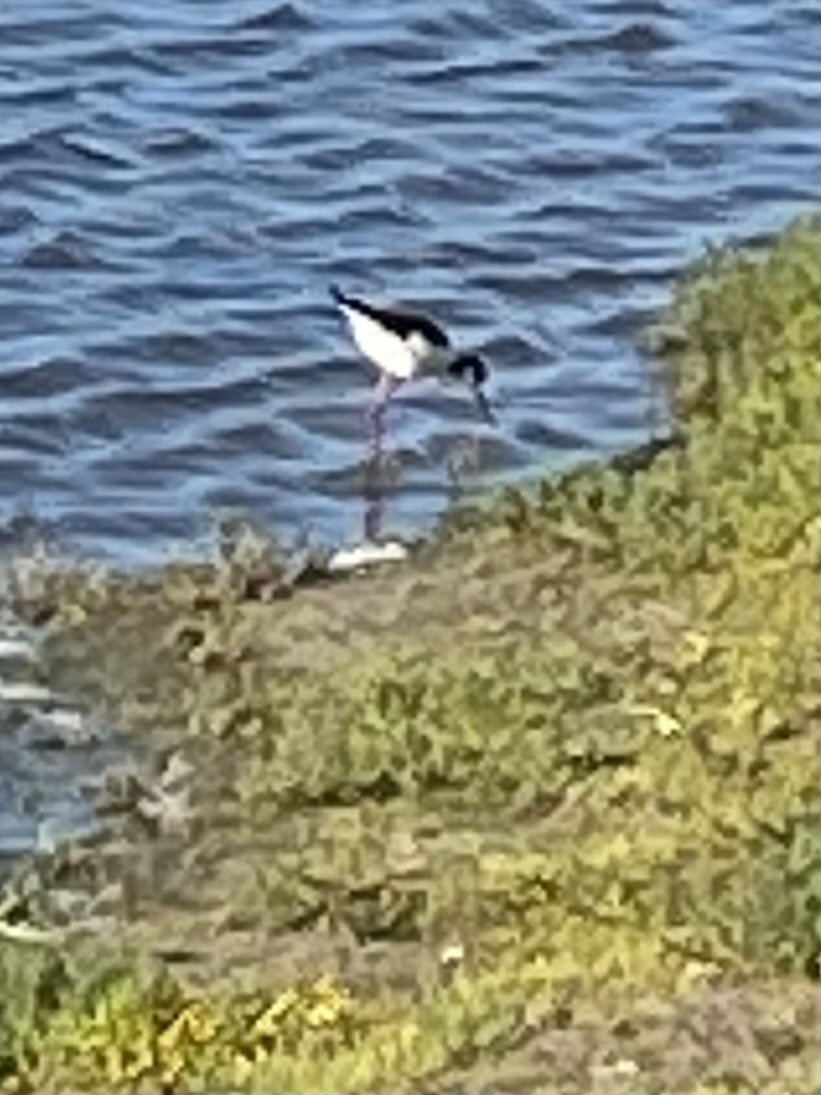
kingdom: Animalia
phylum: Chordata
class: Aves
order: Charadriiformes
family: Recurvirostridae
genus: Himantopus
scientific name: Himantopus mexicanus
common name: Black-necked stilt
